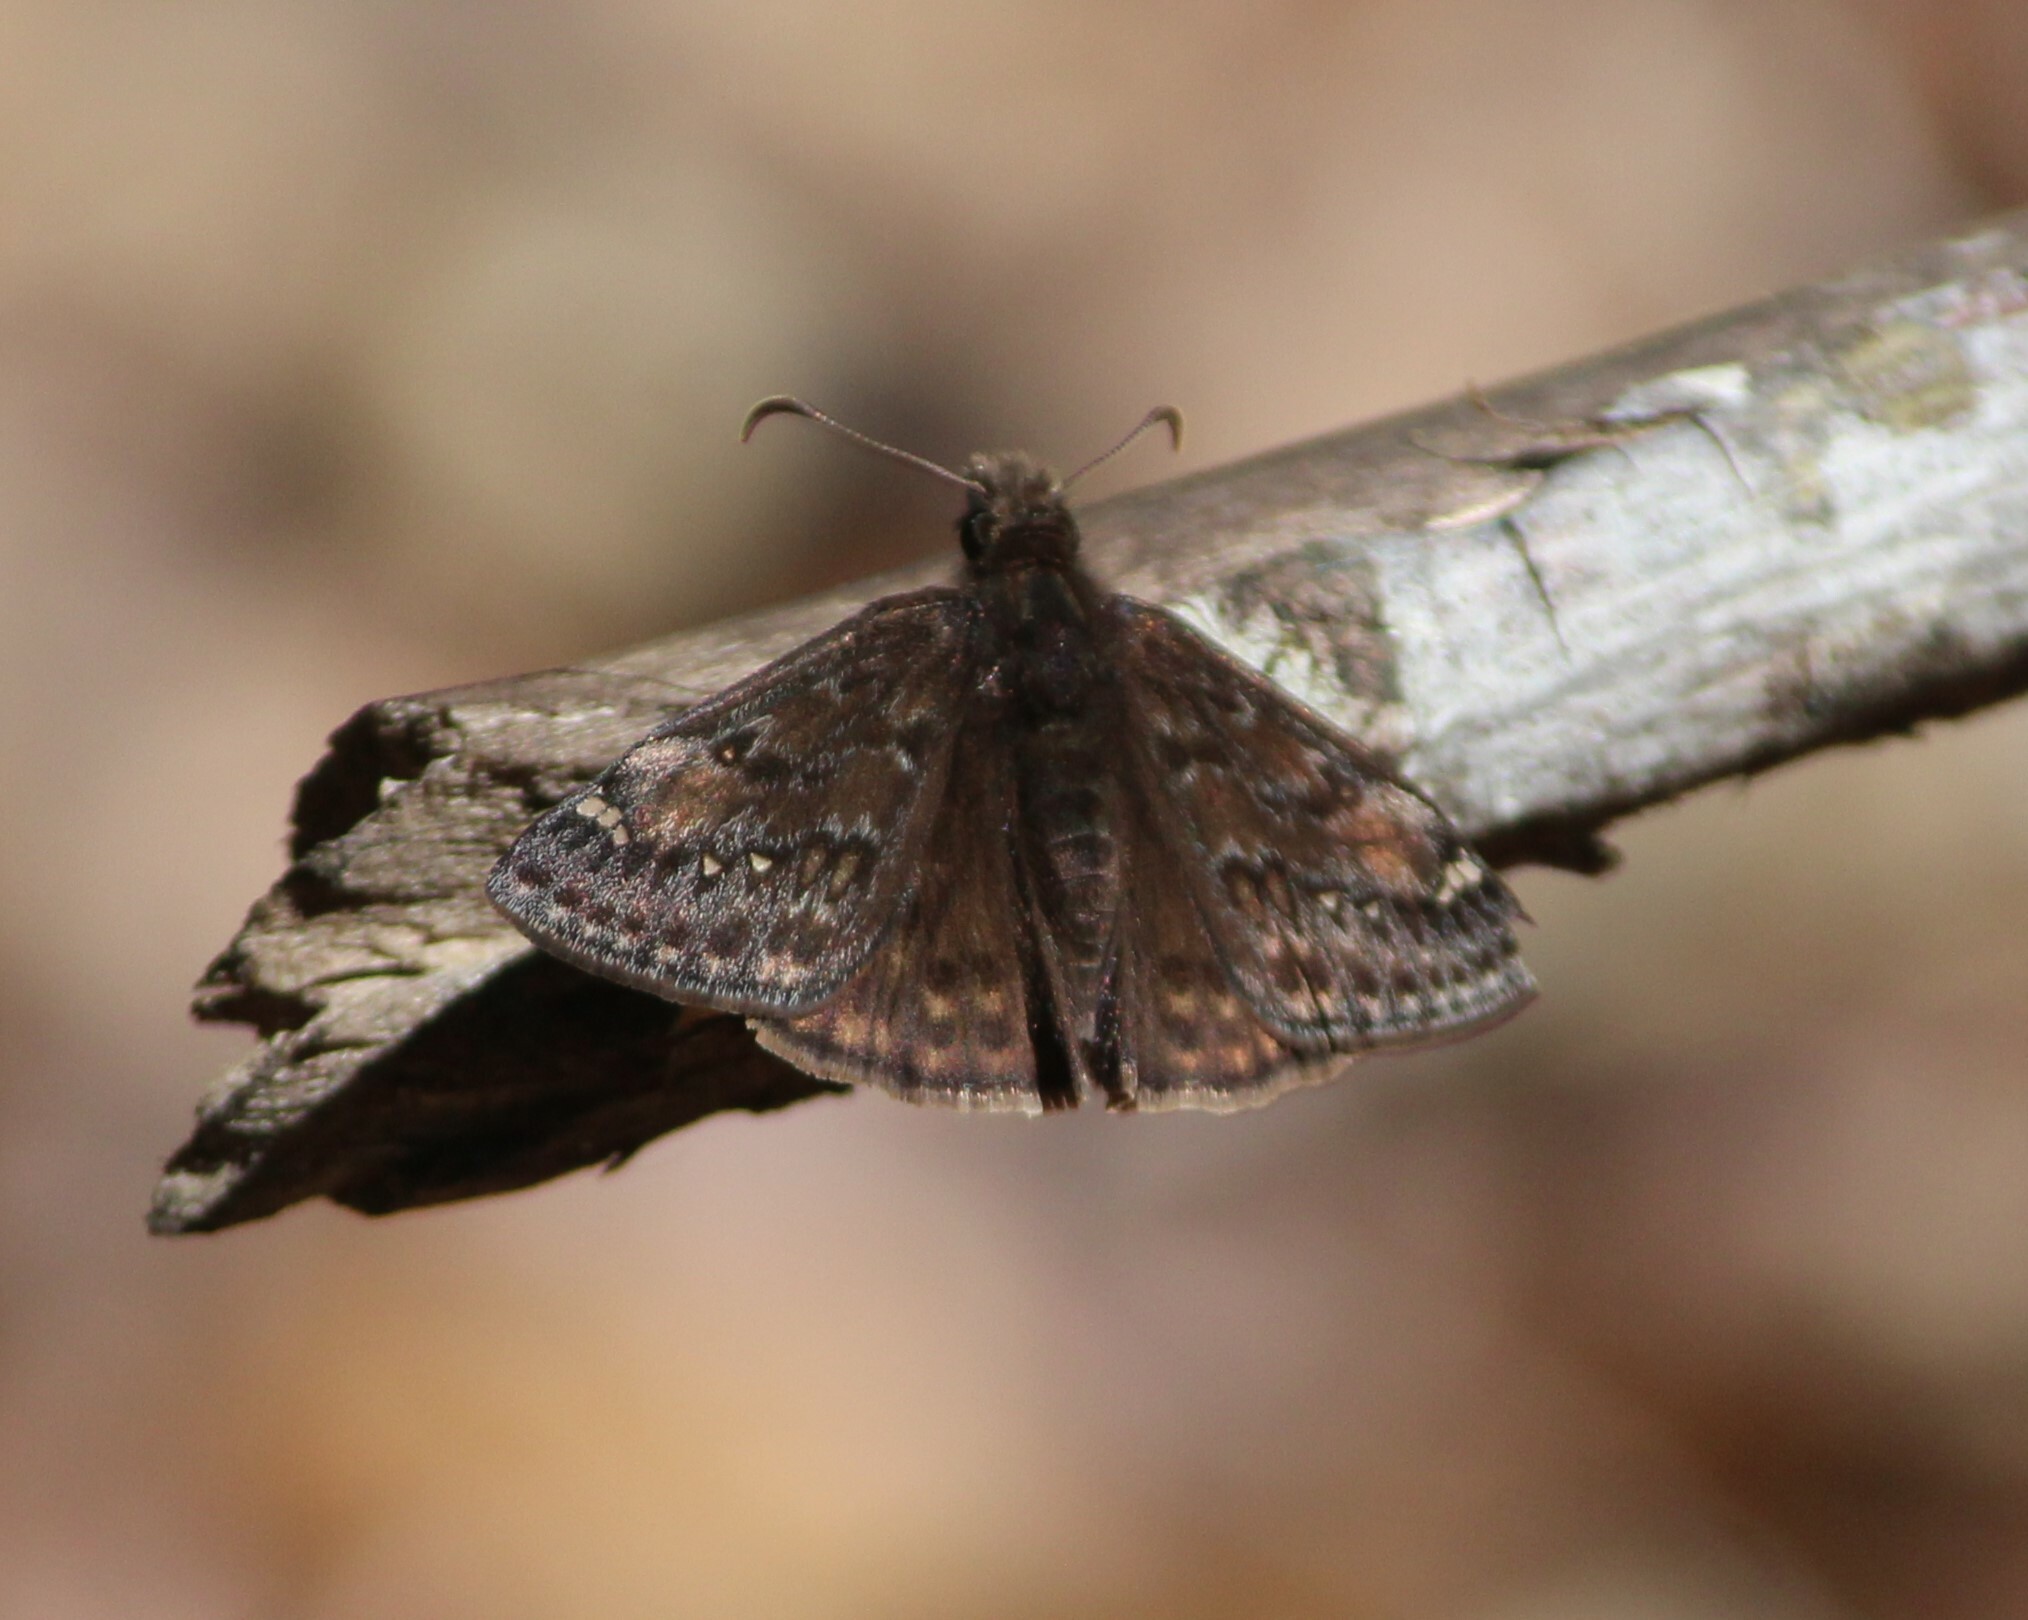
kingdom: Animalia
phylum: Arthropoda
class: Insecta
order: Lepidoptera
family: Hesperiidae
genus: Erynnis
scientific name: Erynnis juvenalis
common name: Juvenal's duskywing
